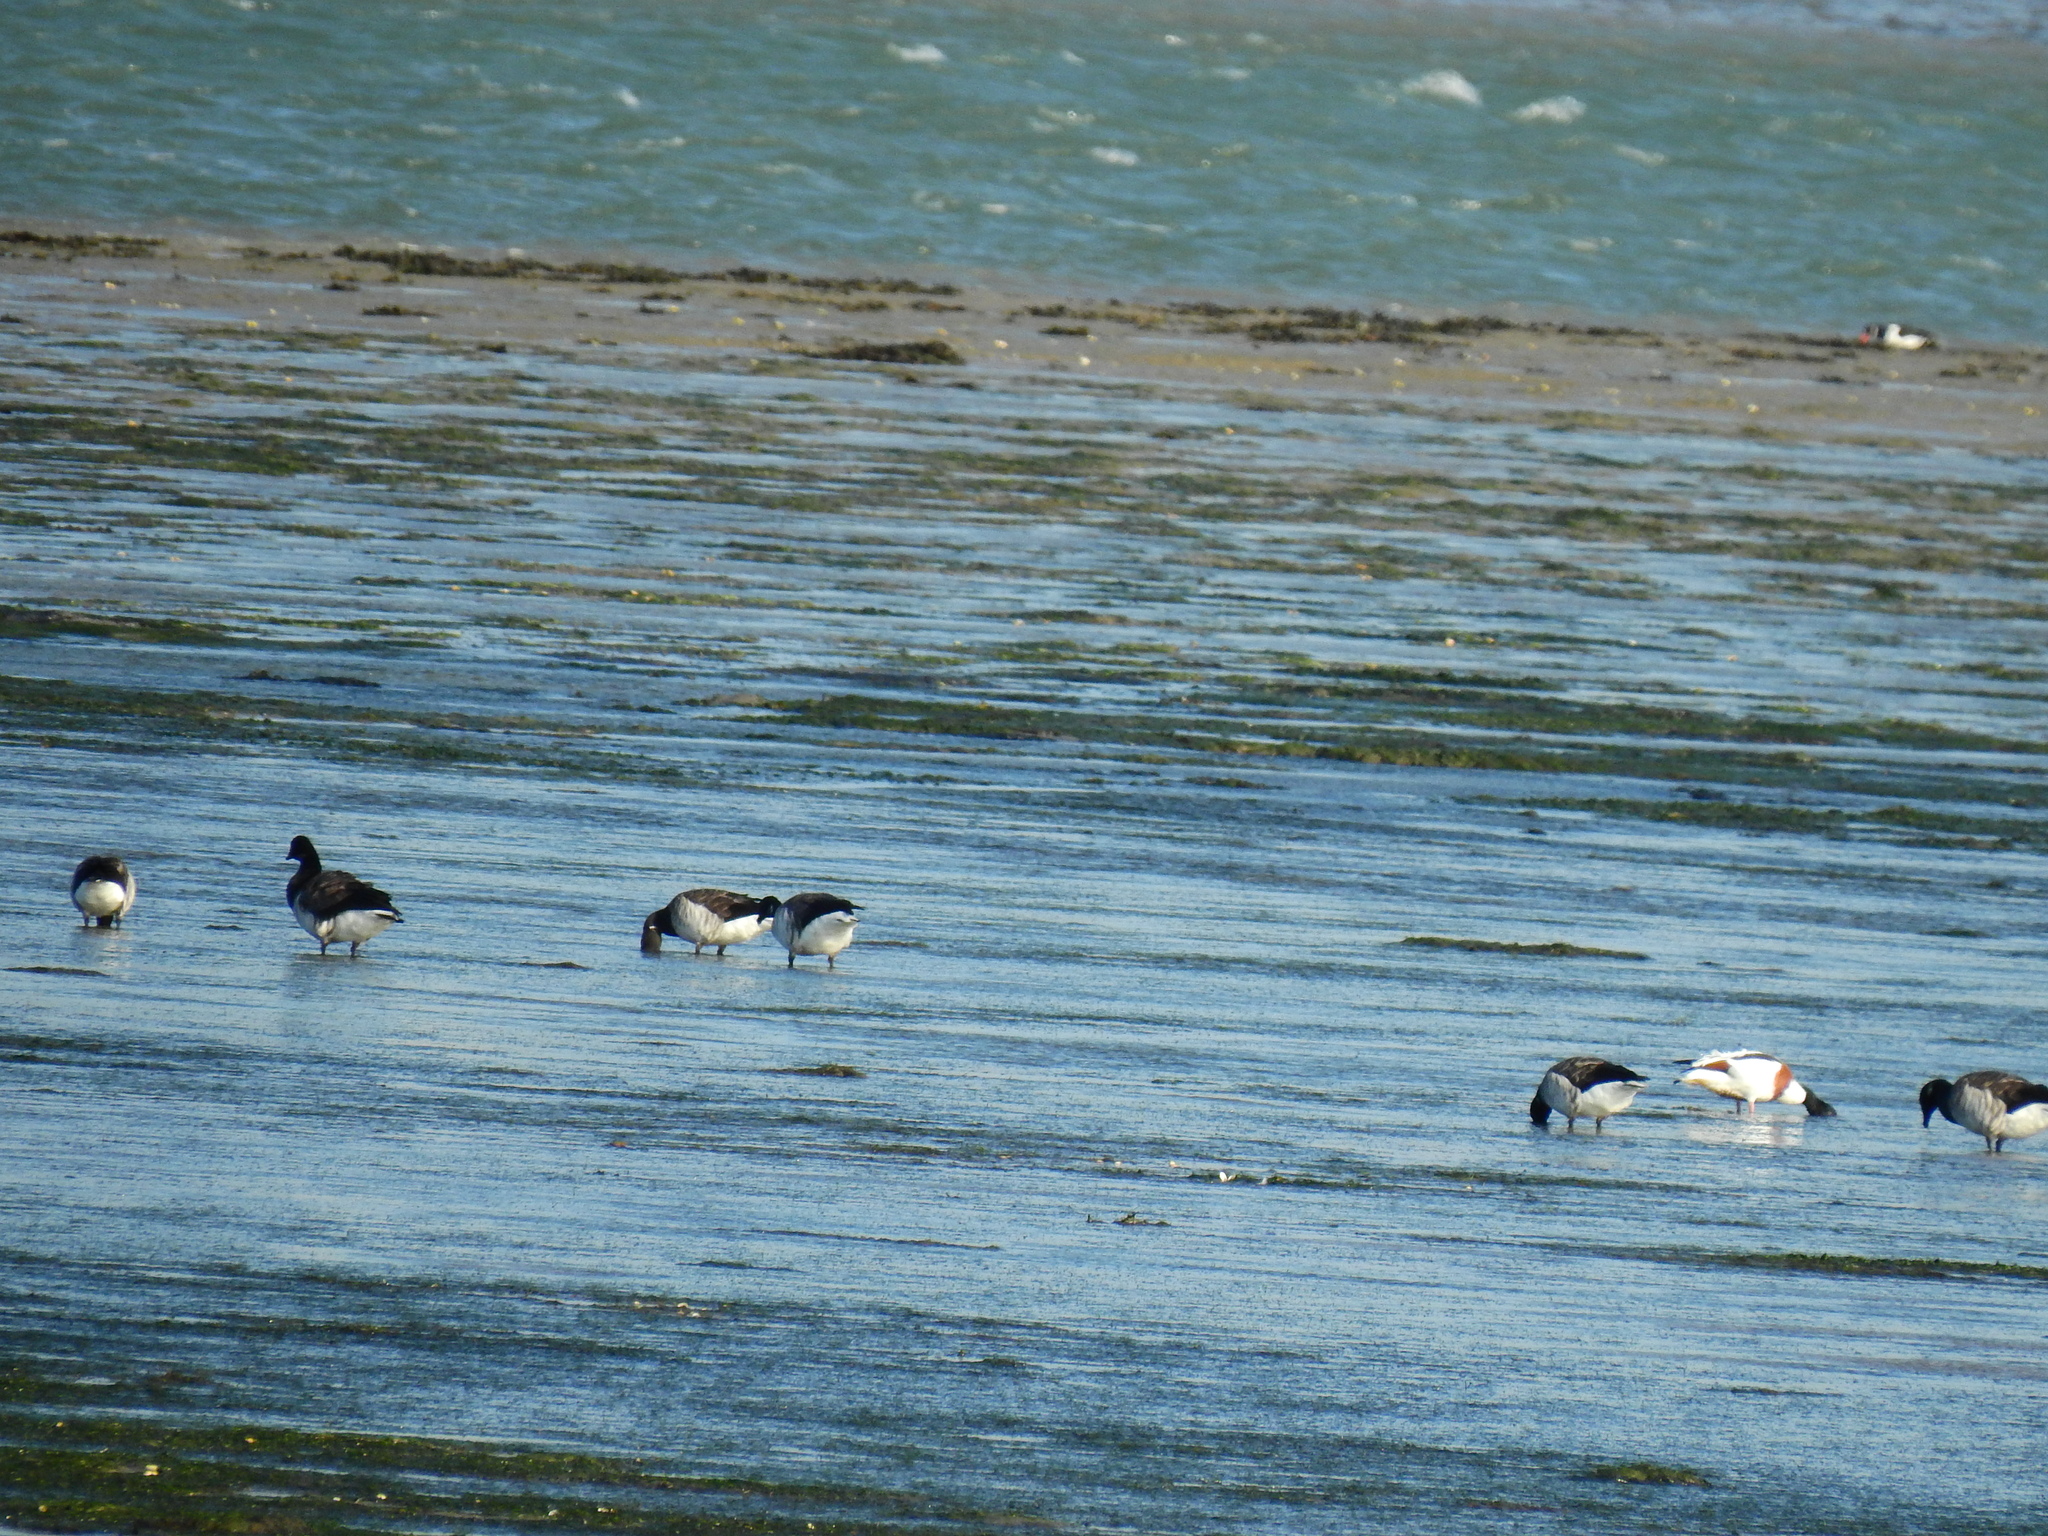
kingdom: Animalia
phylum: Chordata
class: Aves
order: Anseriformes
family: Anatidae
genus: Tadorna
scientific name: Tadorna tadorna
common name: Common shelduck
